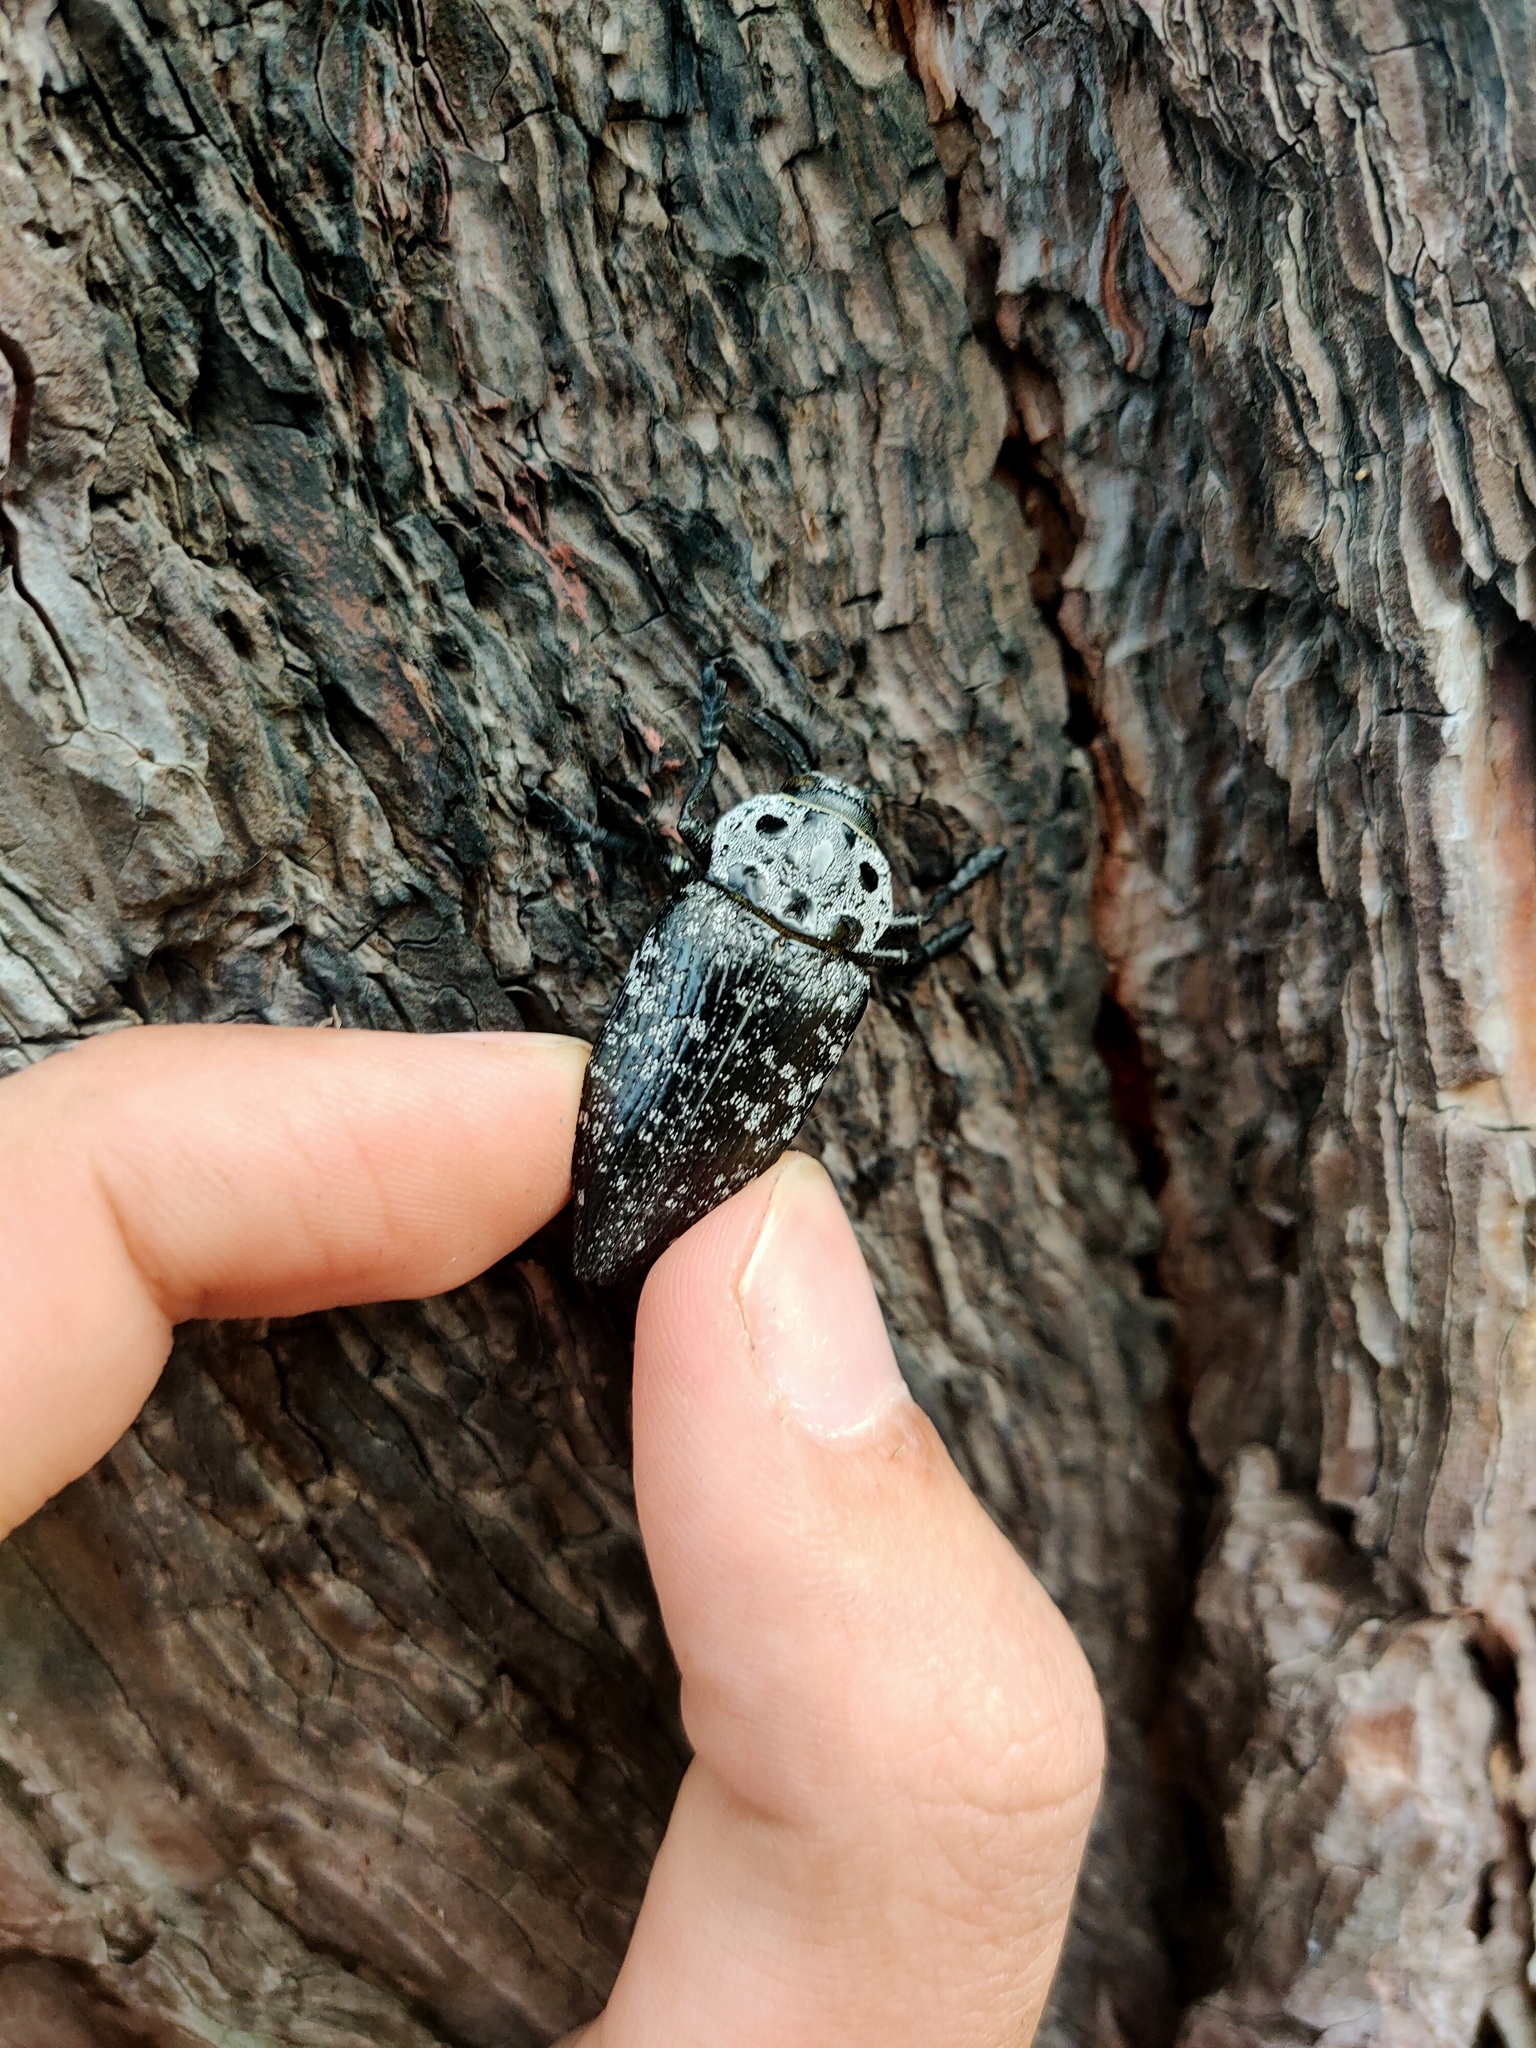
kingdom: Animalia
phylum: Arthropoda
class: Insecta
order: Coleoptera
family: Buprestidae
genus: Capnodis
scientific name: Capnodis cariosa
